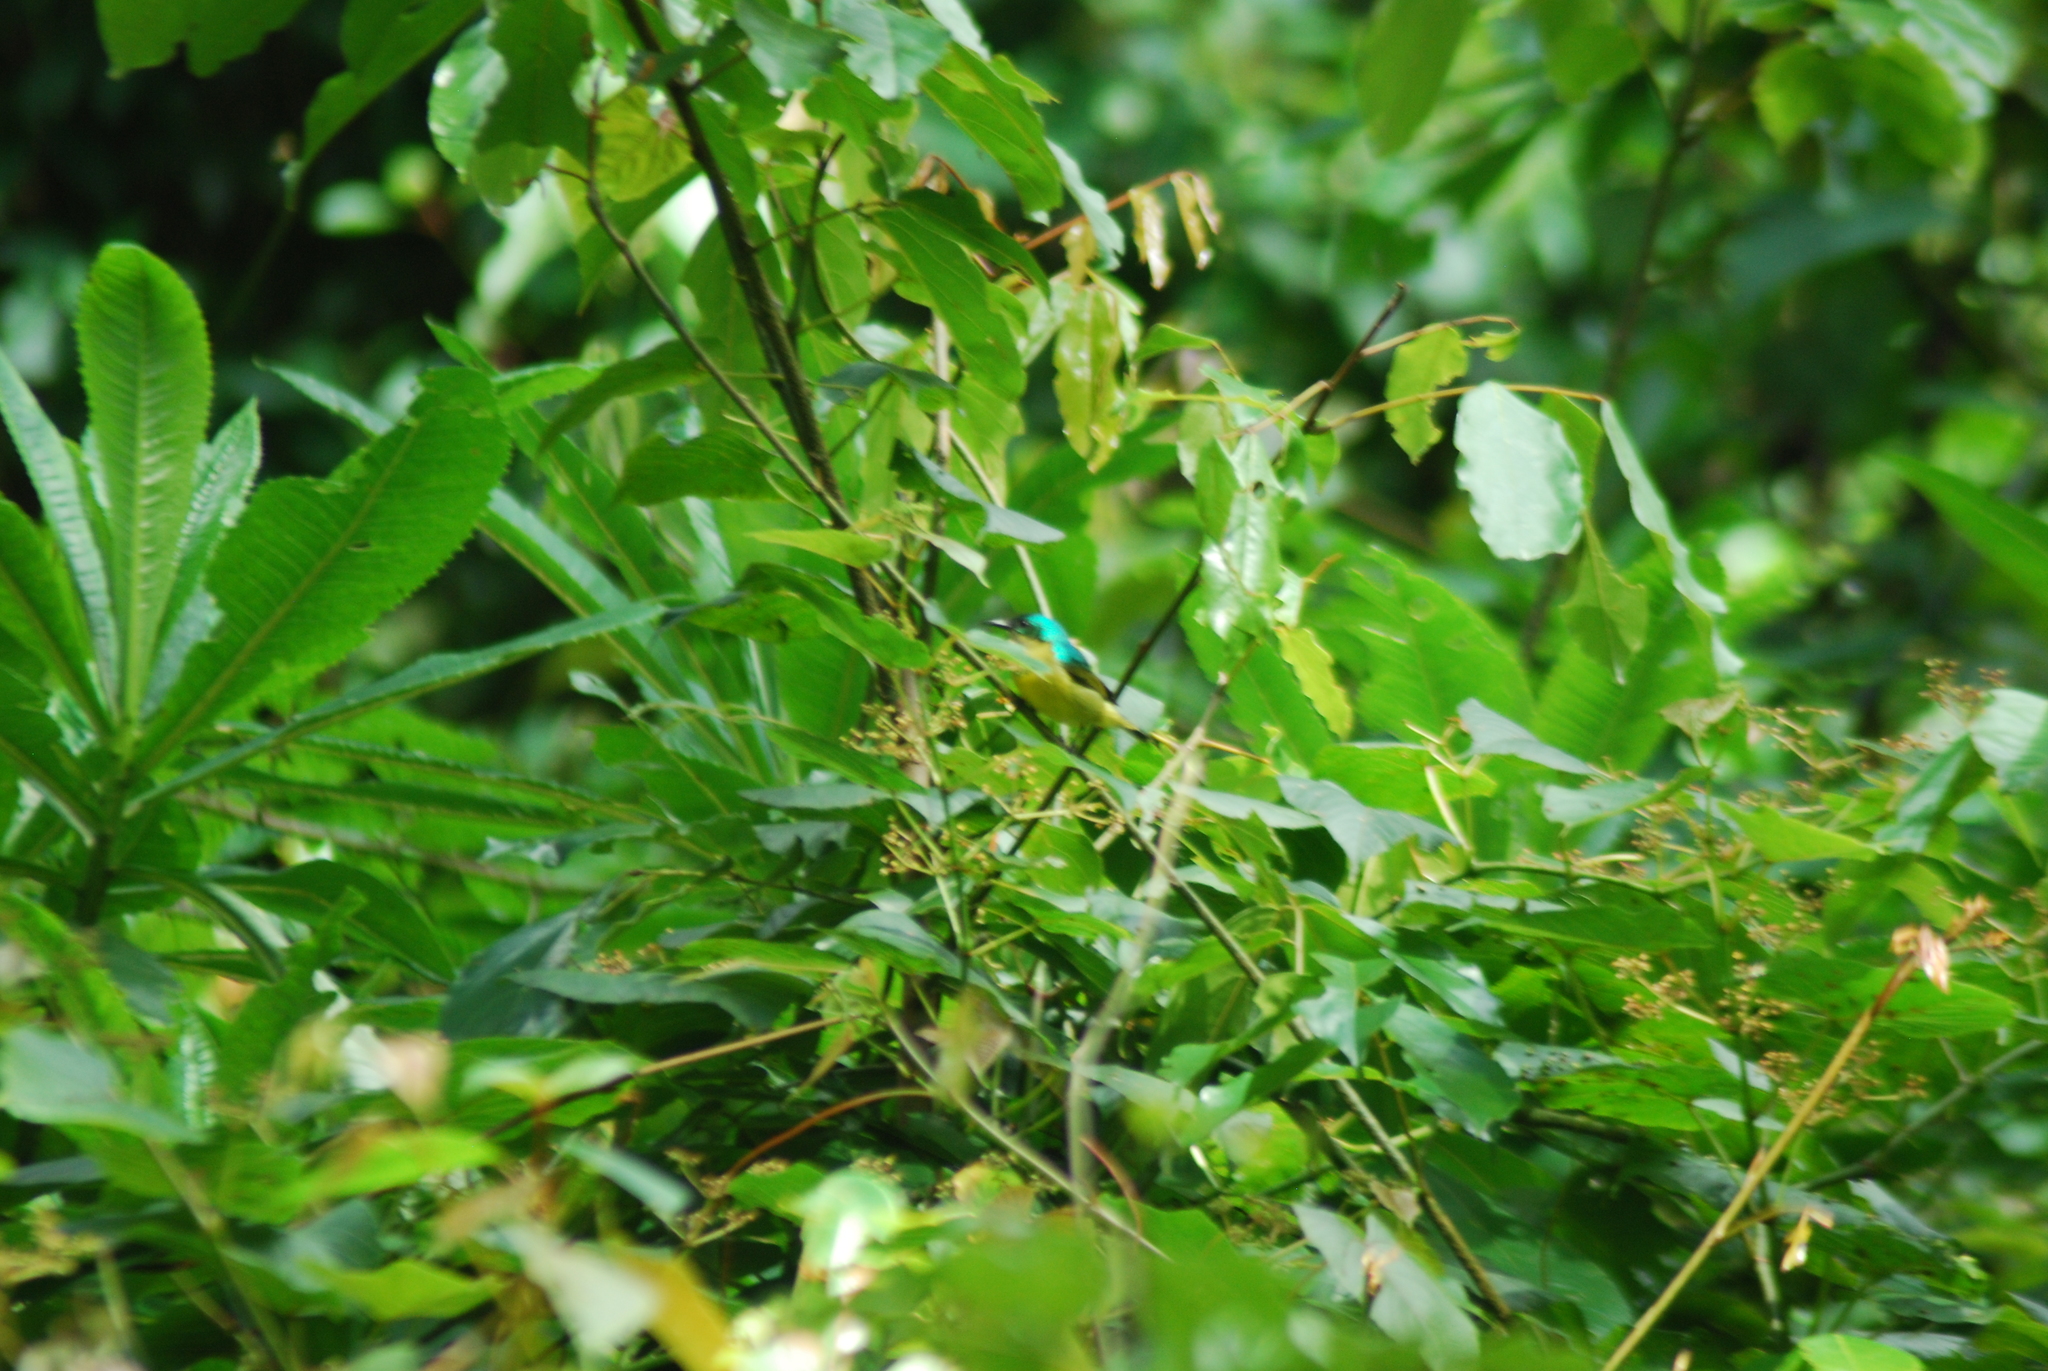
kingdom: Animalia
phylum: Chordata
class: Aves
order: Passeriformes
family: Nectariniidae
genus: Hedydipna
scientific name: Hedydipna collaris
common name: Collared sunbird
